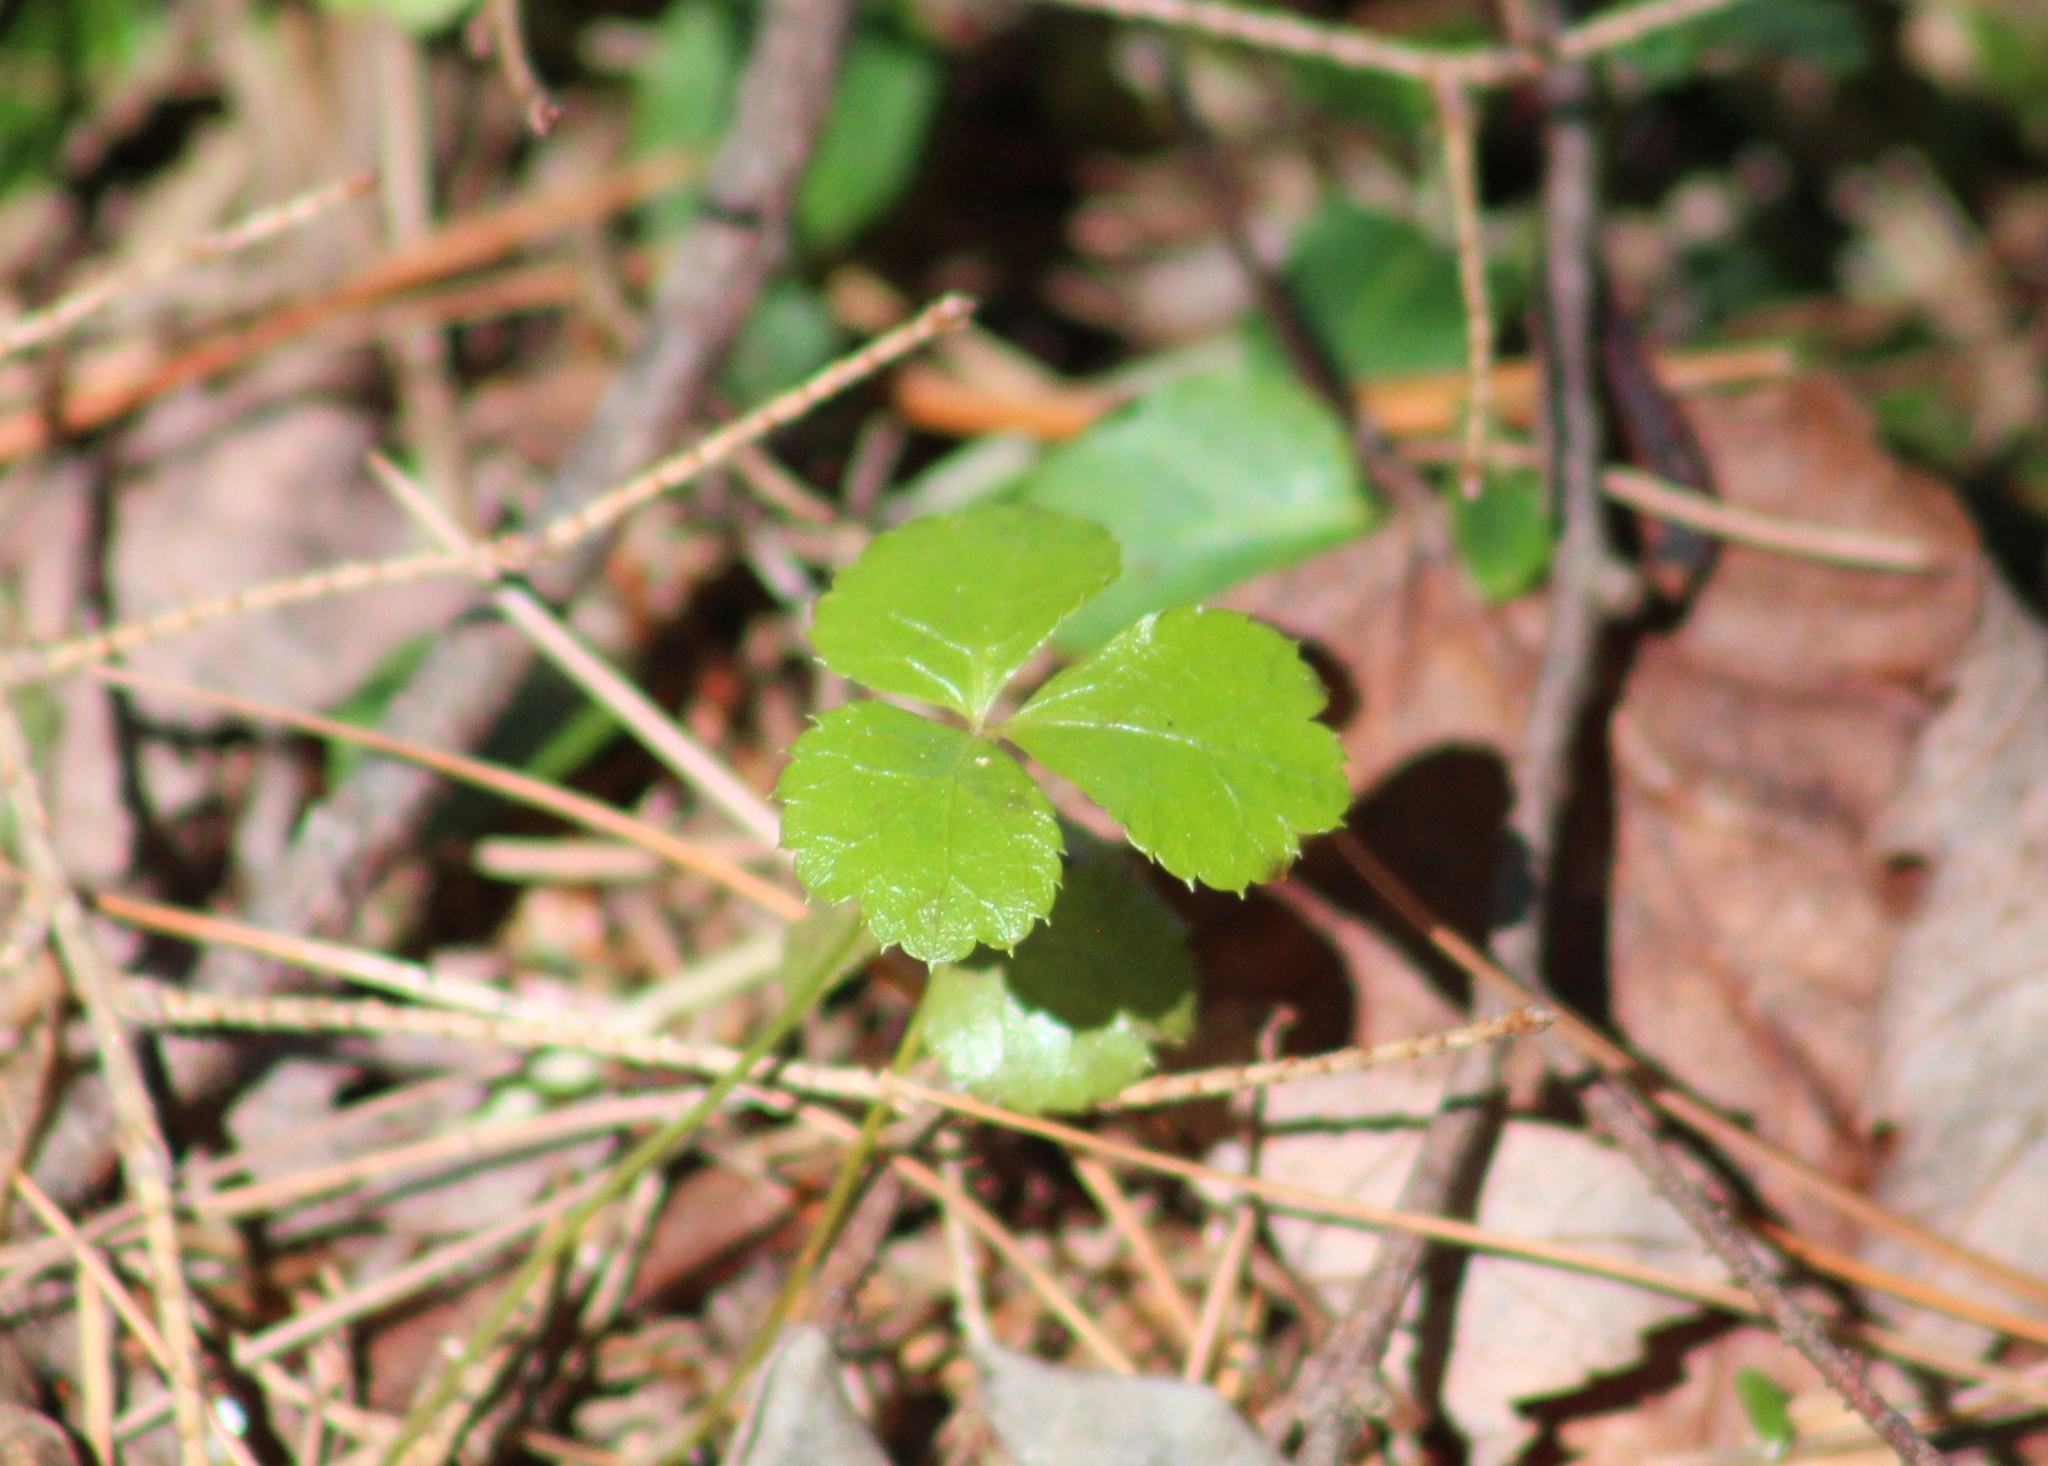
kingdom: Plantae
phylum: Tracheophyta
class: Magnoliopsida
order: Ranunculales
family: Ranunculaceae
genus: Coptis
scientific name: Coptis trifolia
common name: Canker-root
